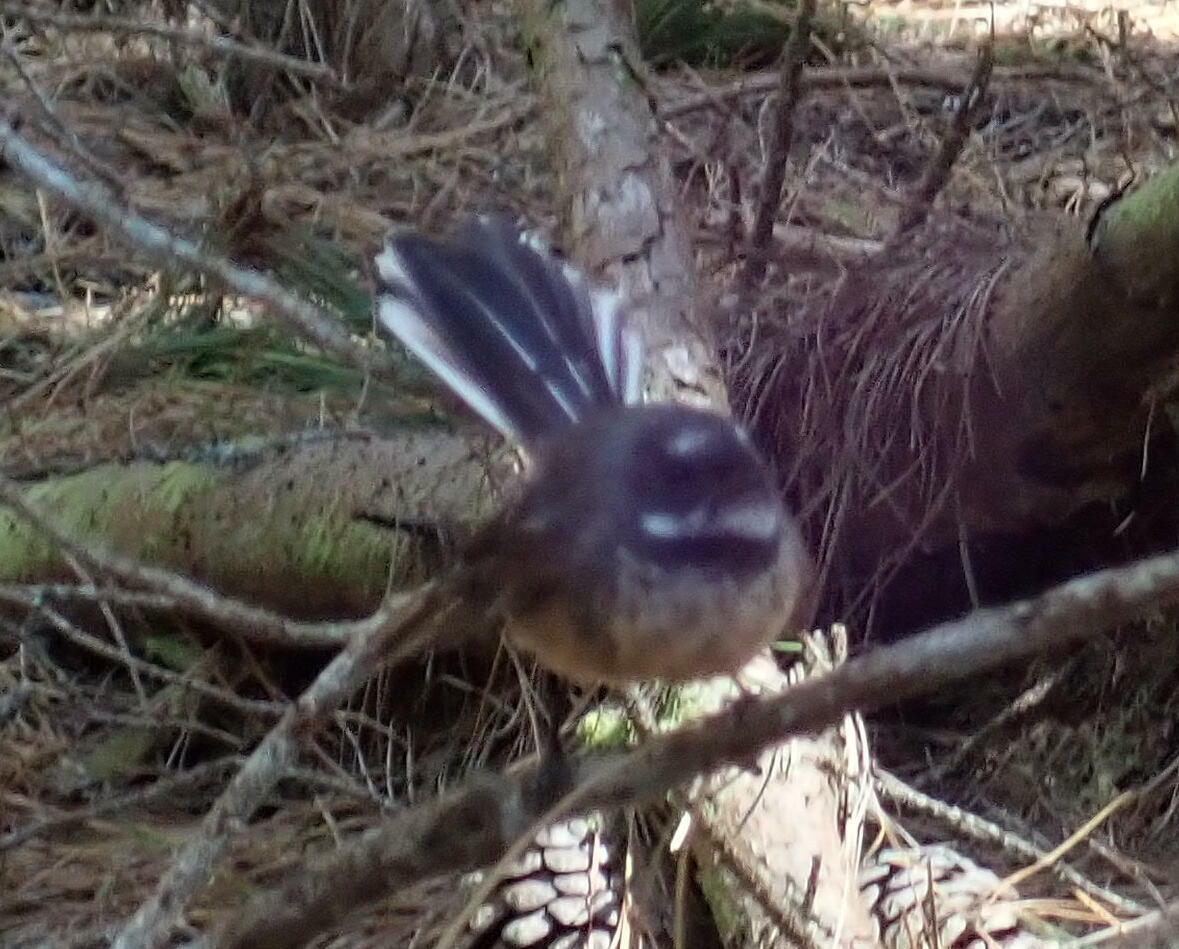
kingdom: Animalia
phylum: Chordata
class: Aves
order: Passeriformes
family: Rhipiduridae
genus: Rhipidura
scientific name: Rhipidura fuliginosa
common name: New zealand fantail
